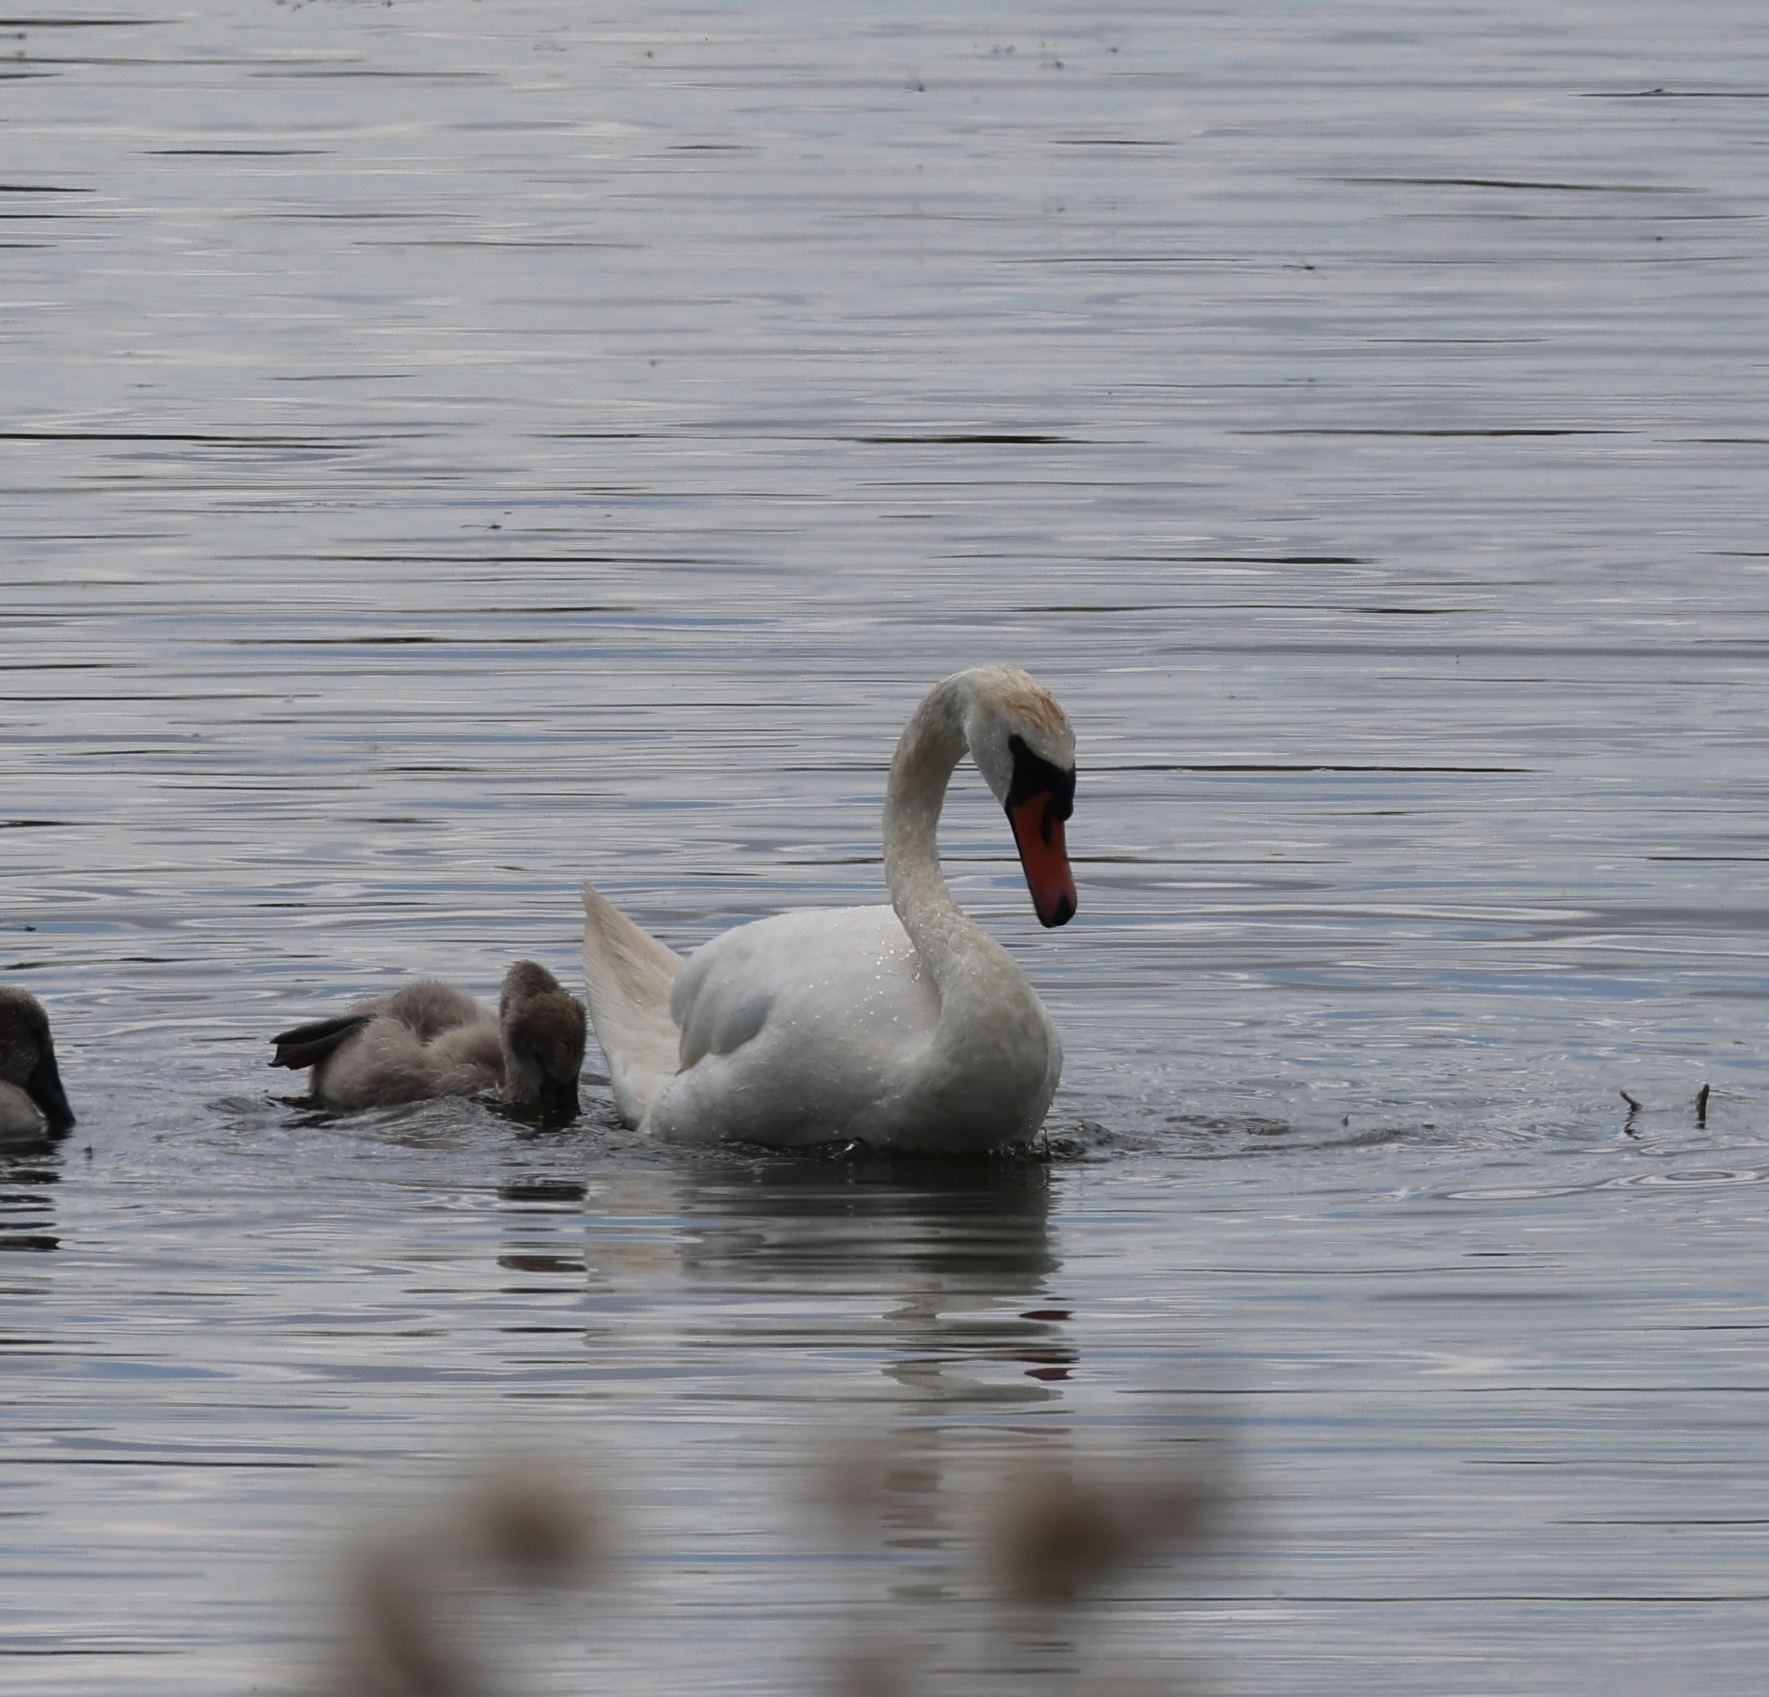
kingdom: Animalia
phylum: Chordata
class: Aves
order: Anseriformes
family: Anatidae
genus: Cygnus
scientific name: Cygnus olor
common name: Mute swan
